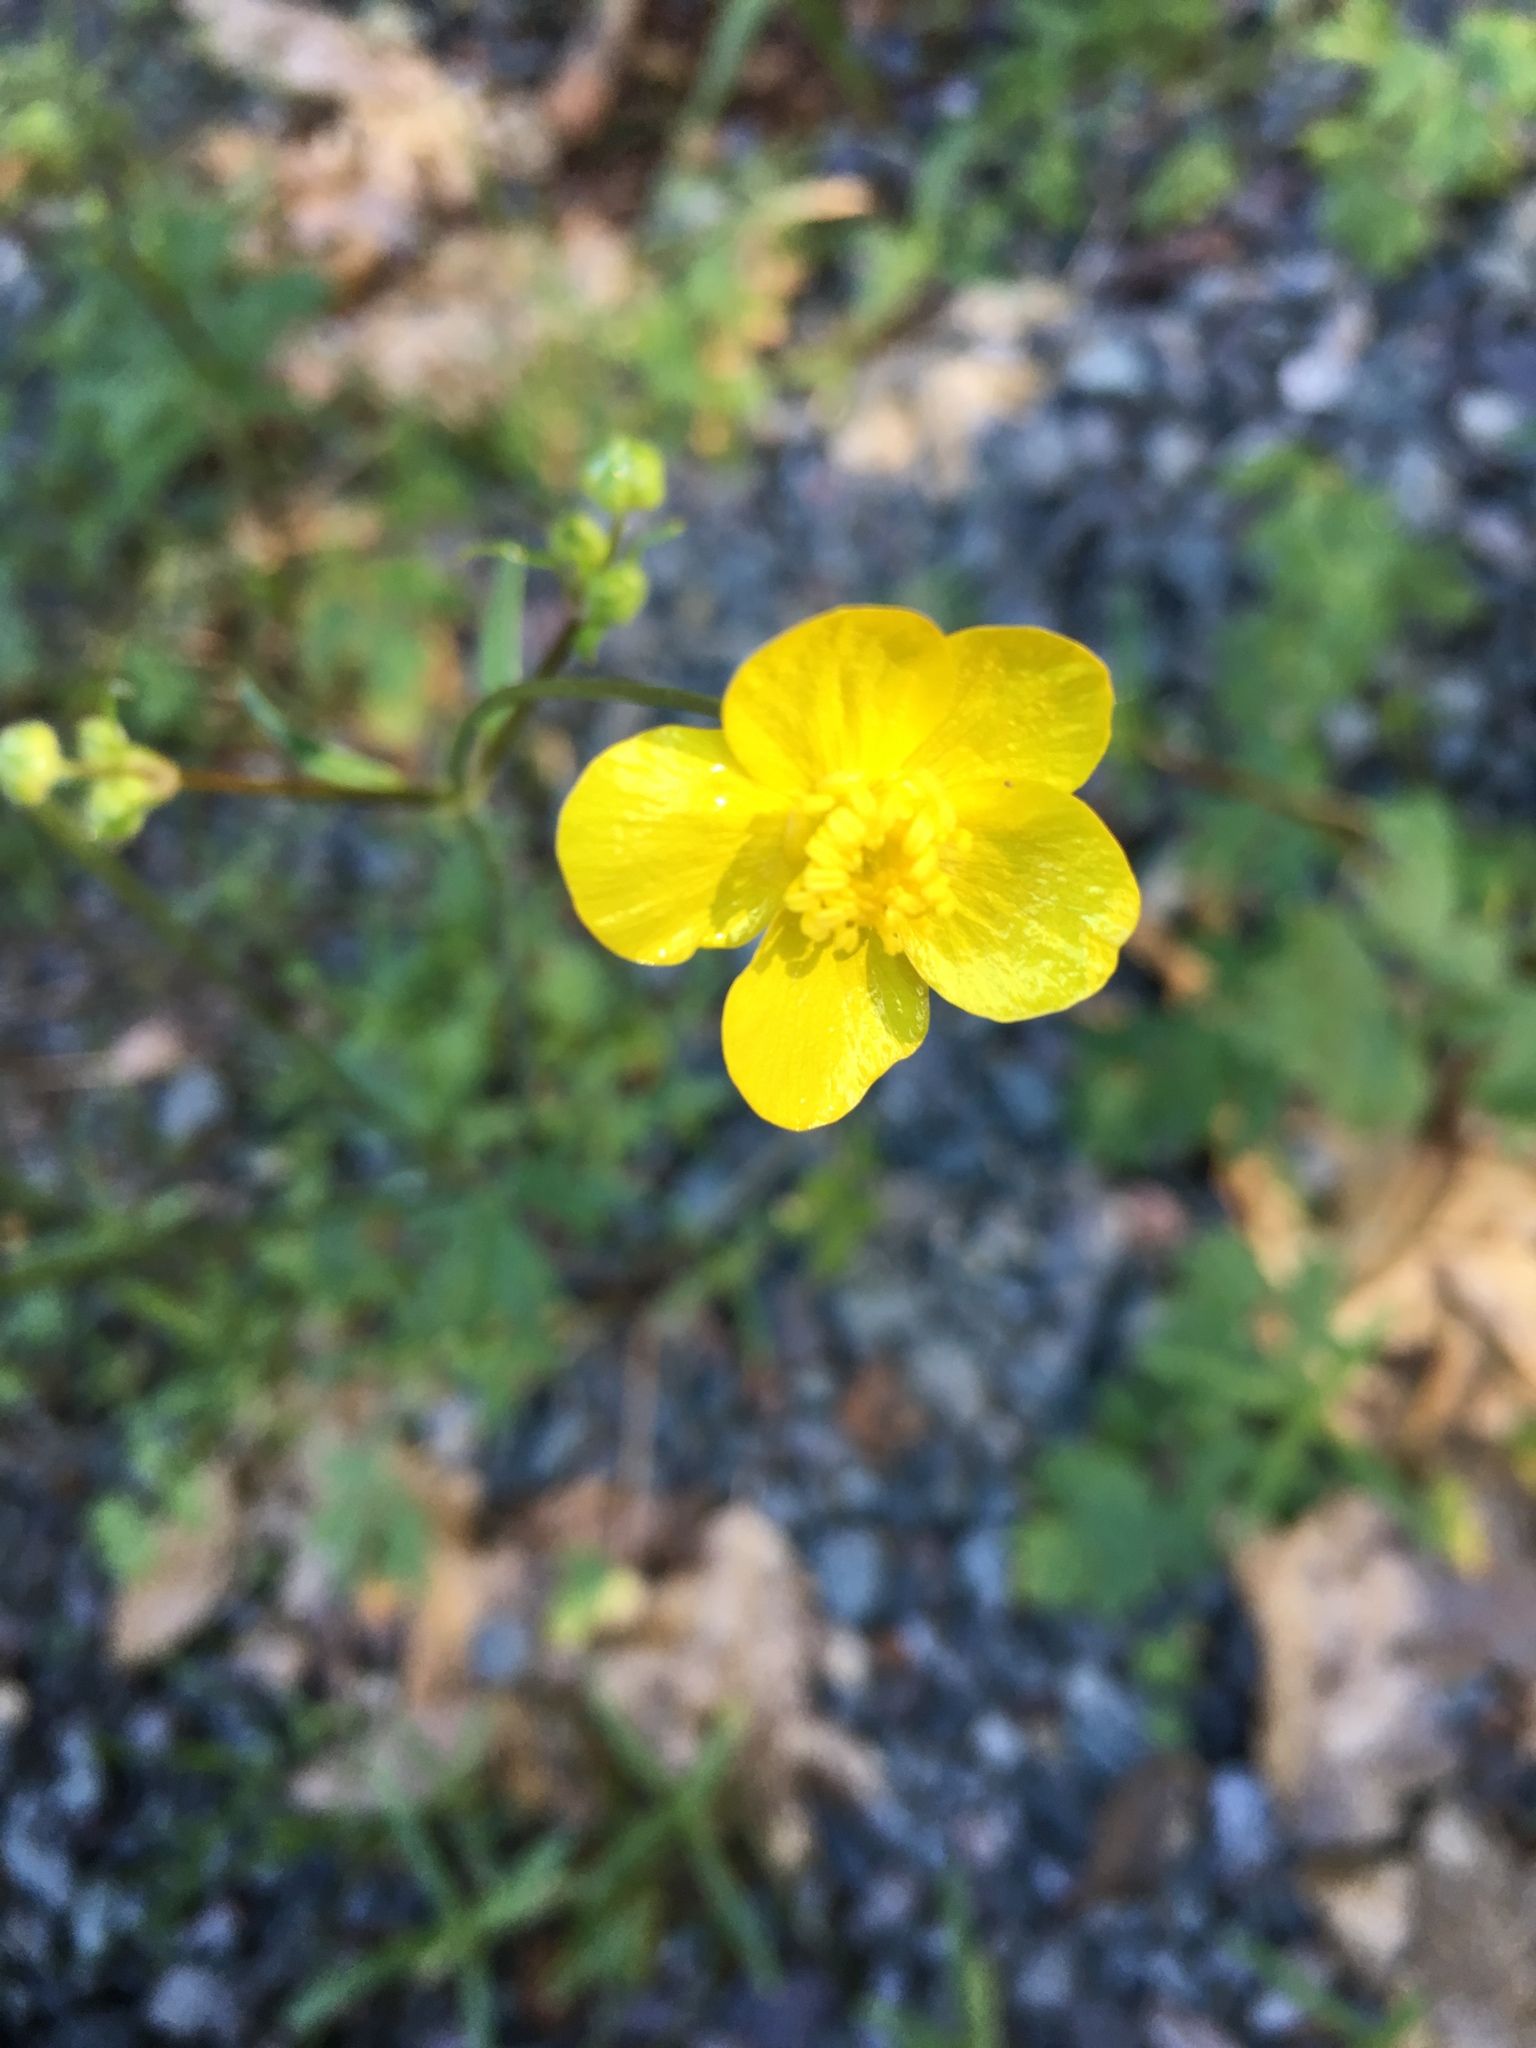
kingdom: Plantae
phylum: Tracheophyta
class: Magnoliopsida
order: Ranunculales
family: Ranunculaceae
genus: Ranunculus
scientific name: Ranunculus occidentalis
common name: Western buttercup
